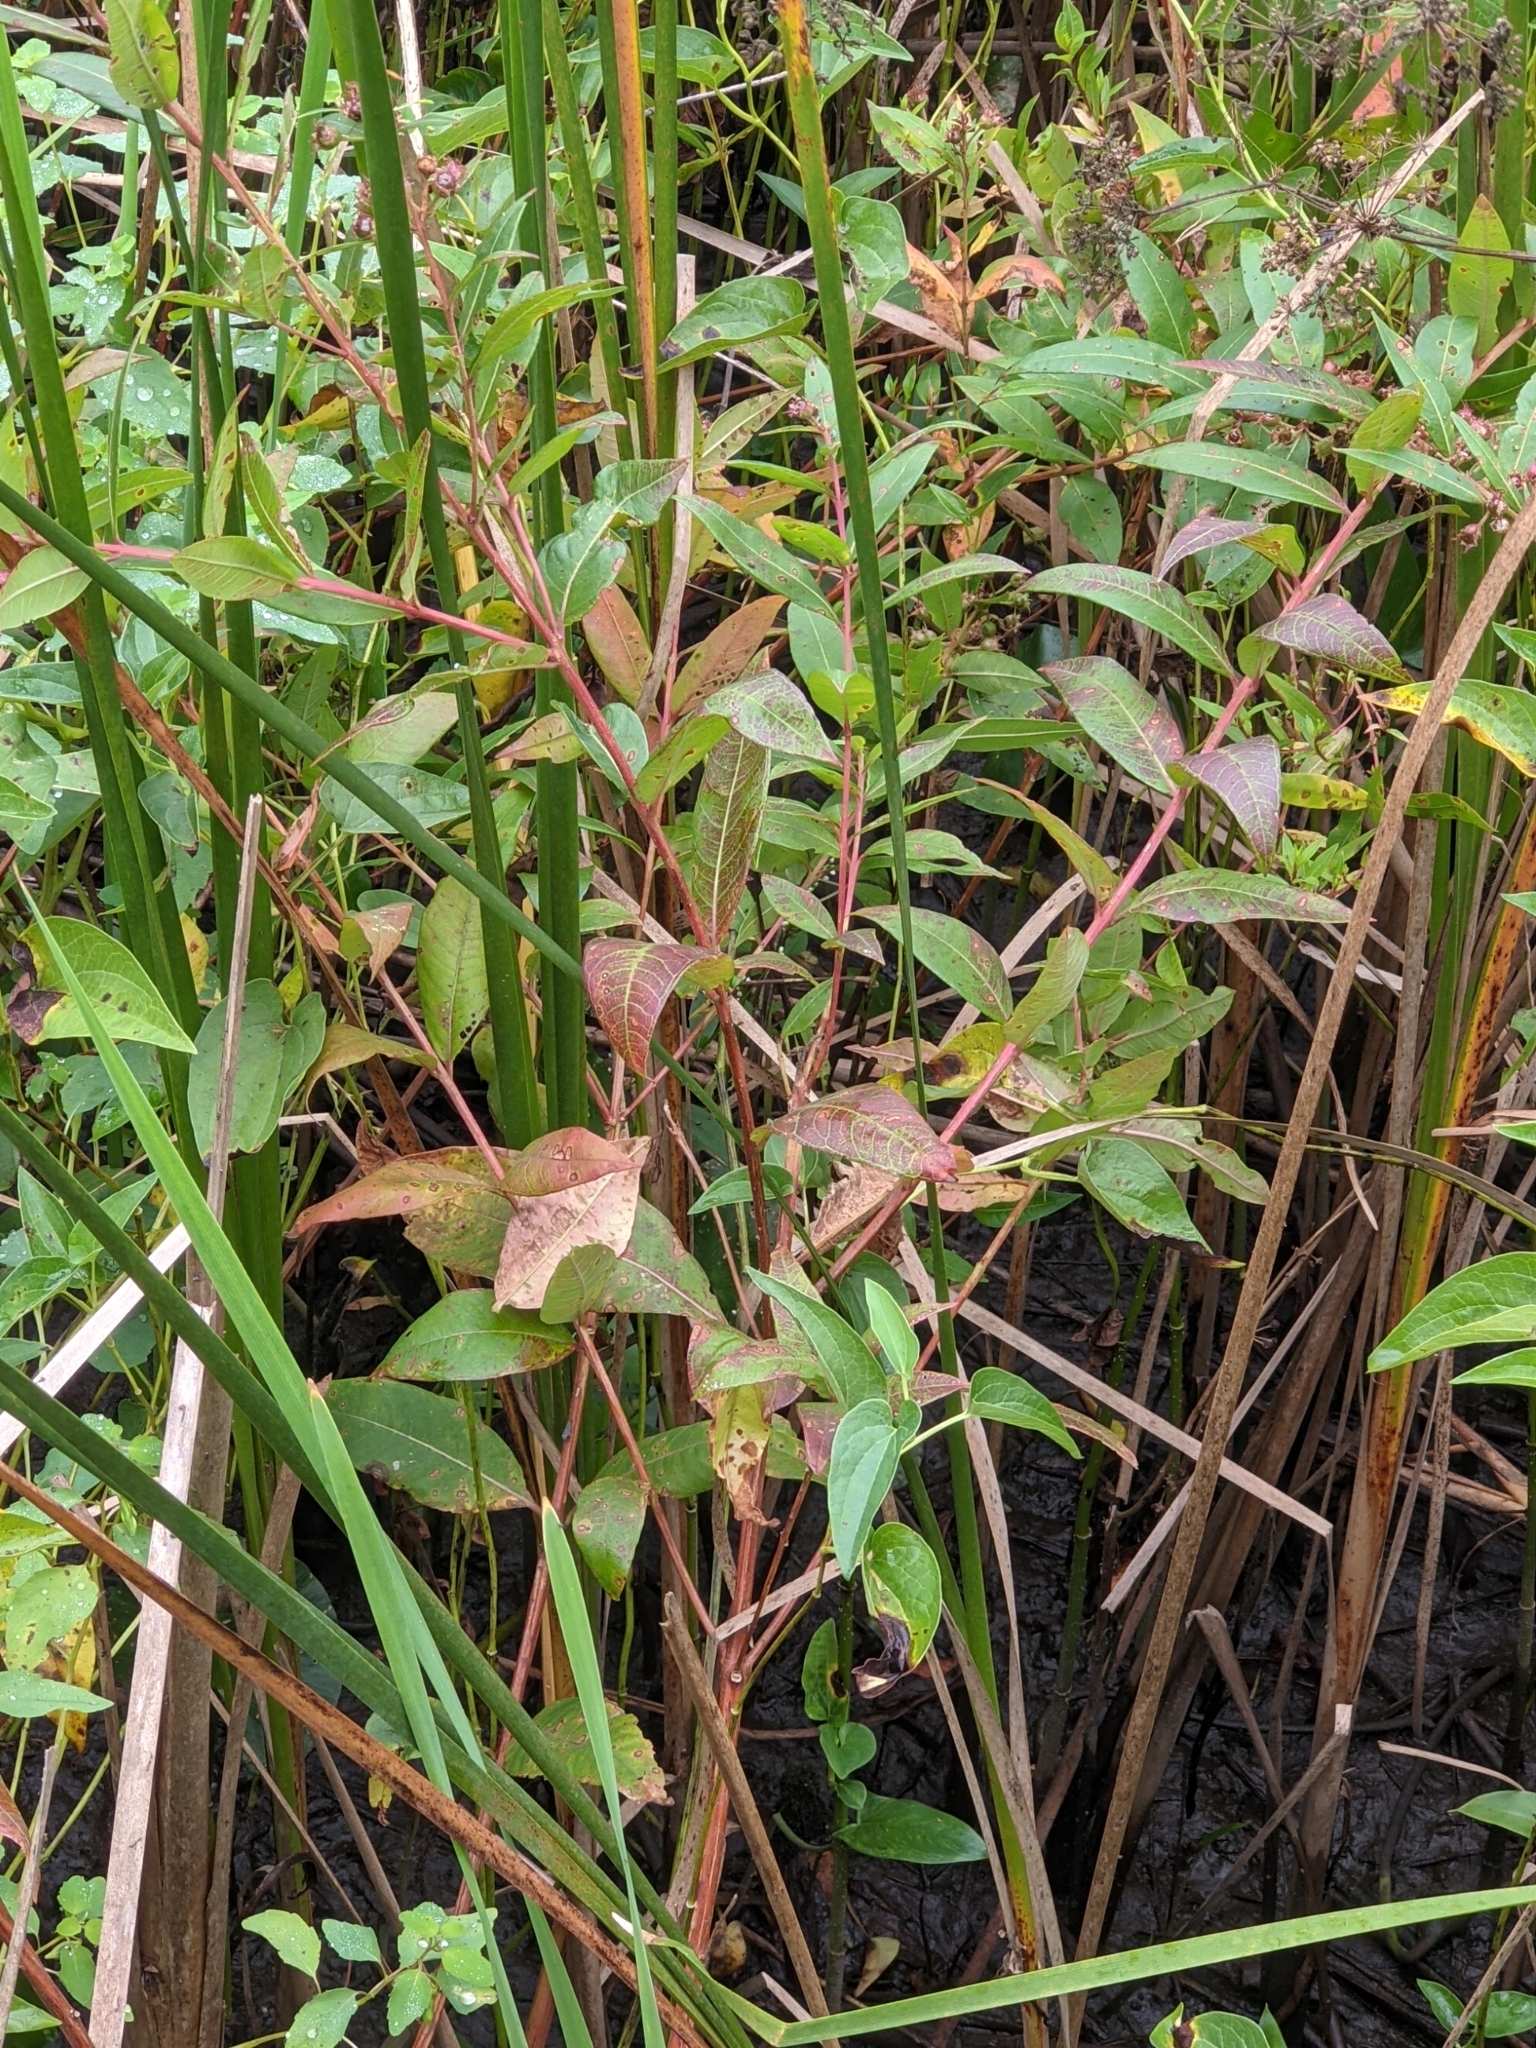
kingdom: Plantae
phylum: Tracheophyta
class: Magnoliopsida
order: Myrtales
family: Lythraceae
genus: Decodon
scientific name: Decodon verticillatus
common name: Hairy swamp loosestrife
